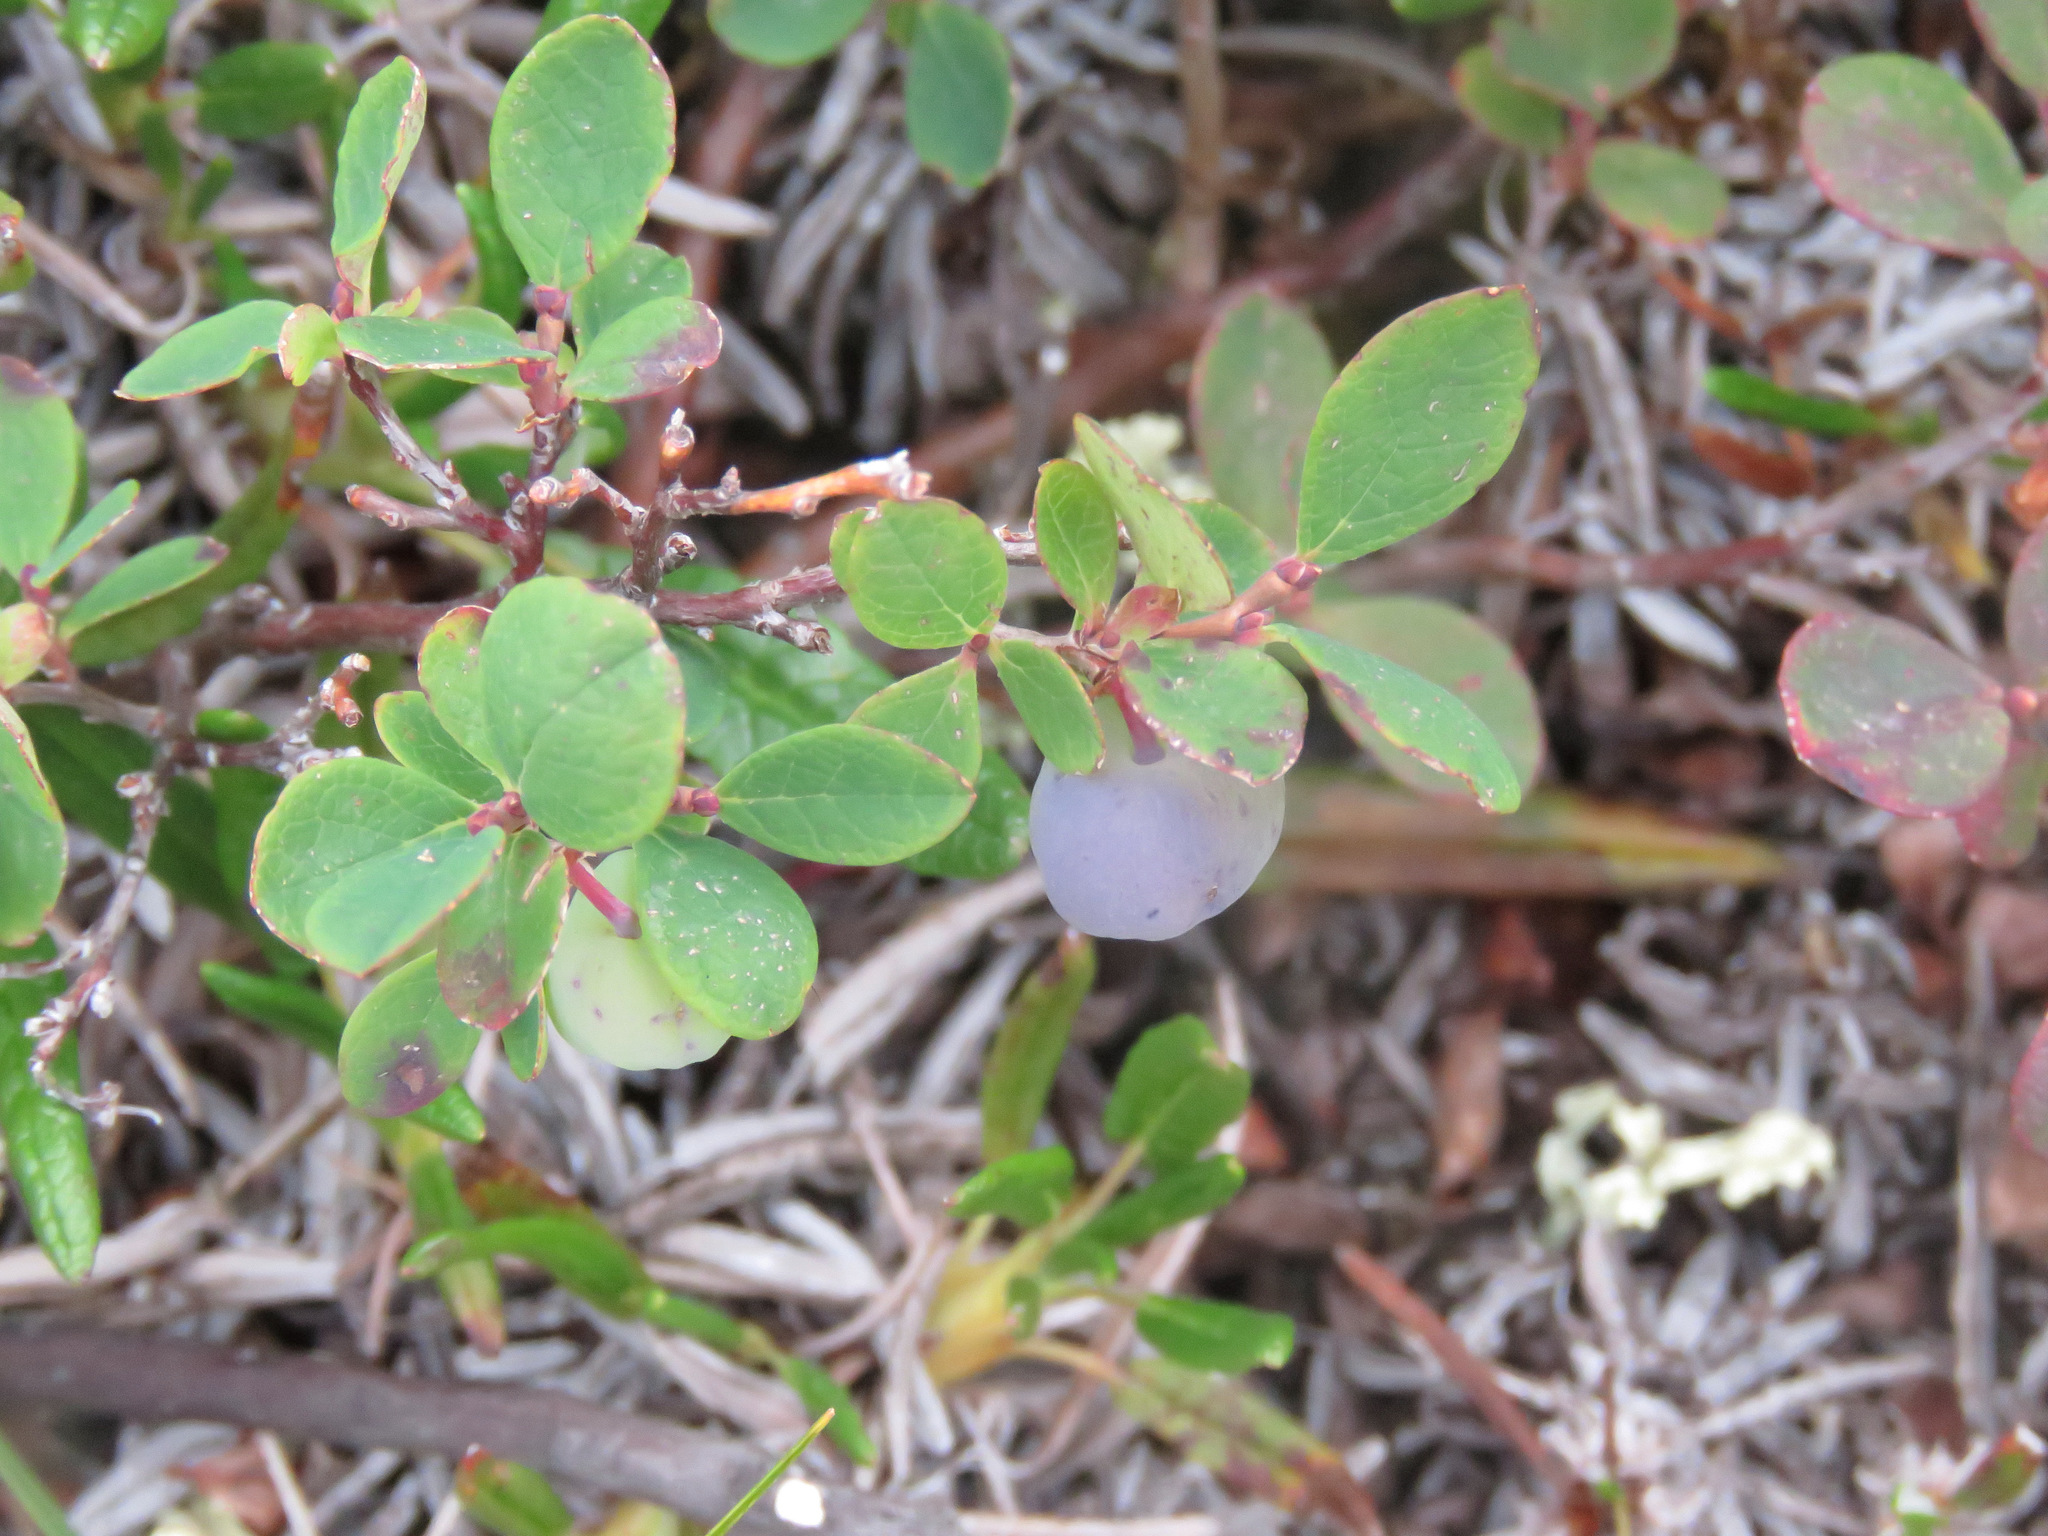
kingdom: Plantae
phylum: Tracheophyta
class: Magnoliopsida
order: Ericales
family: Ericaceae
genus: Vaccinium
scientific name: Vaccinium uliginosum
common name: Bog bilberry
